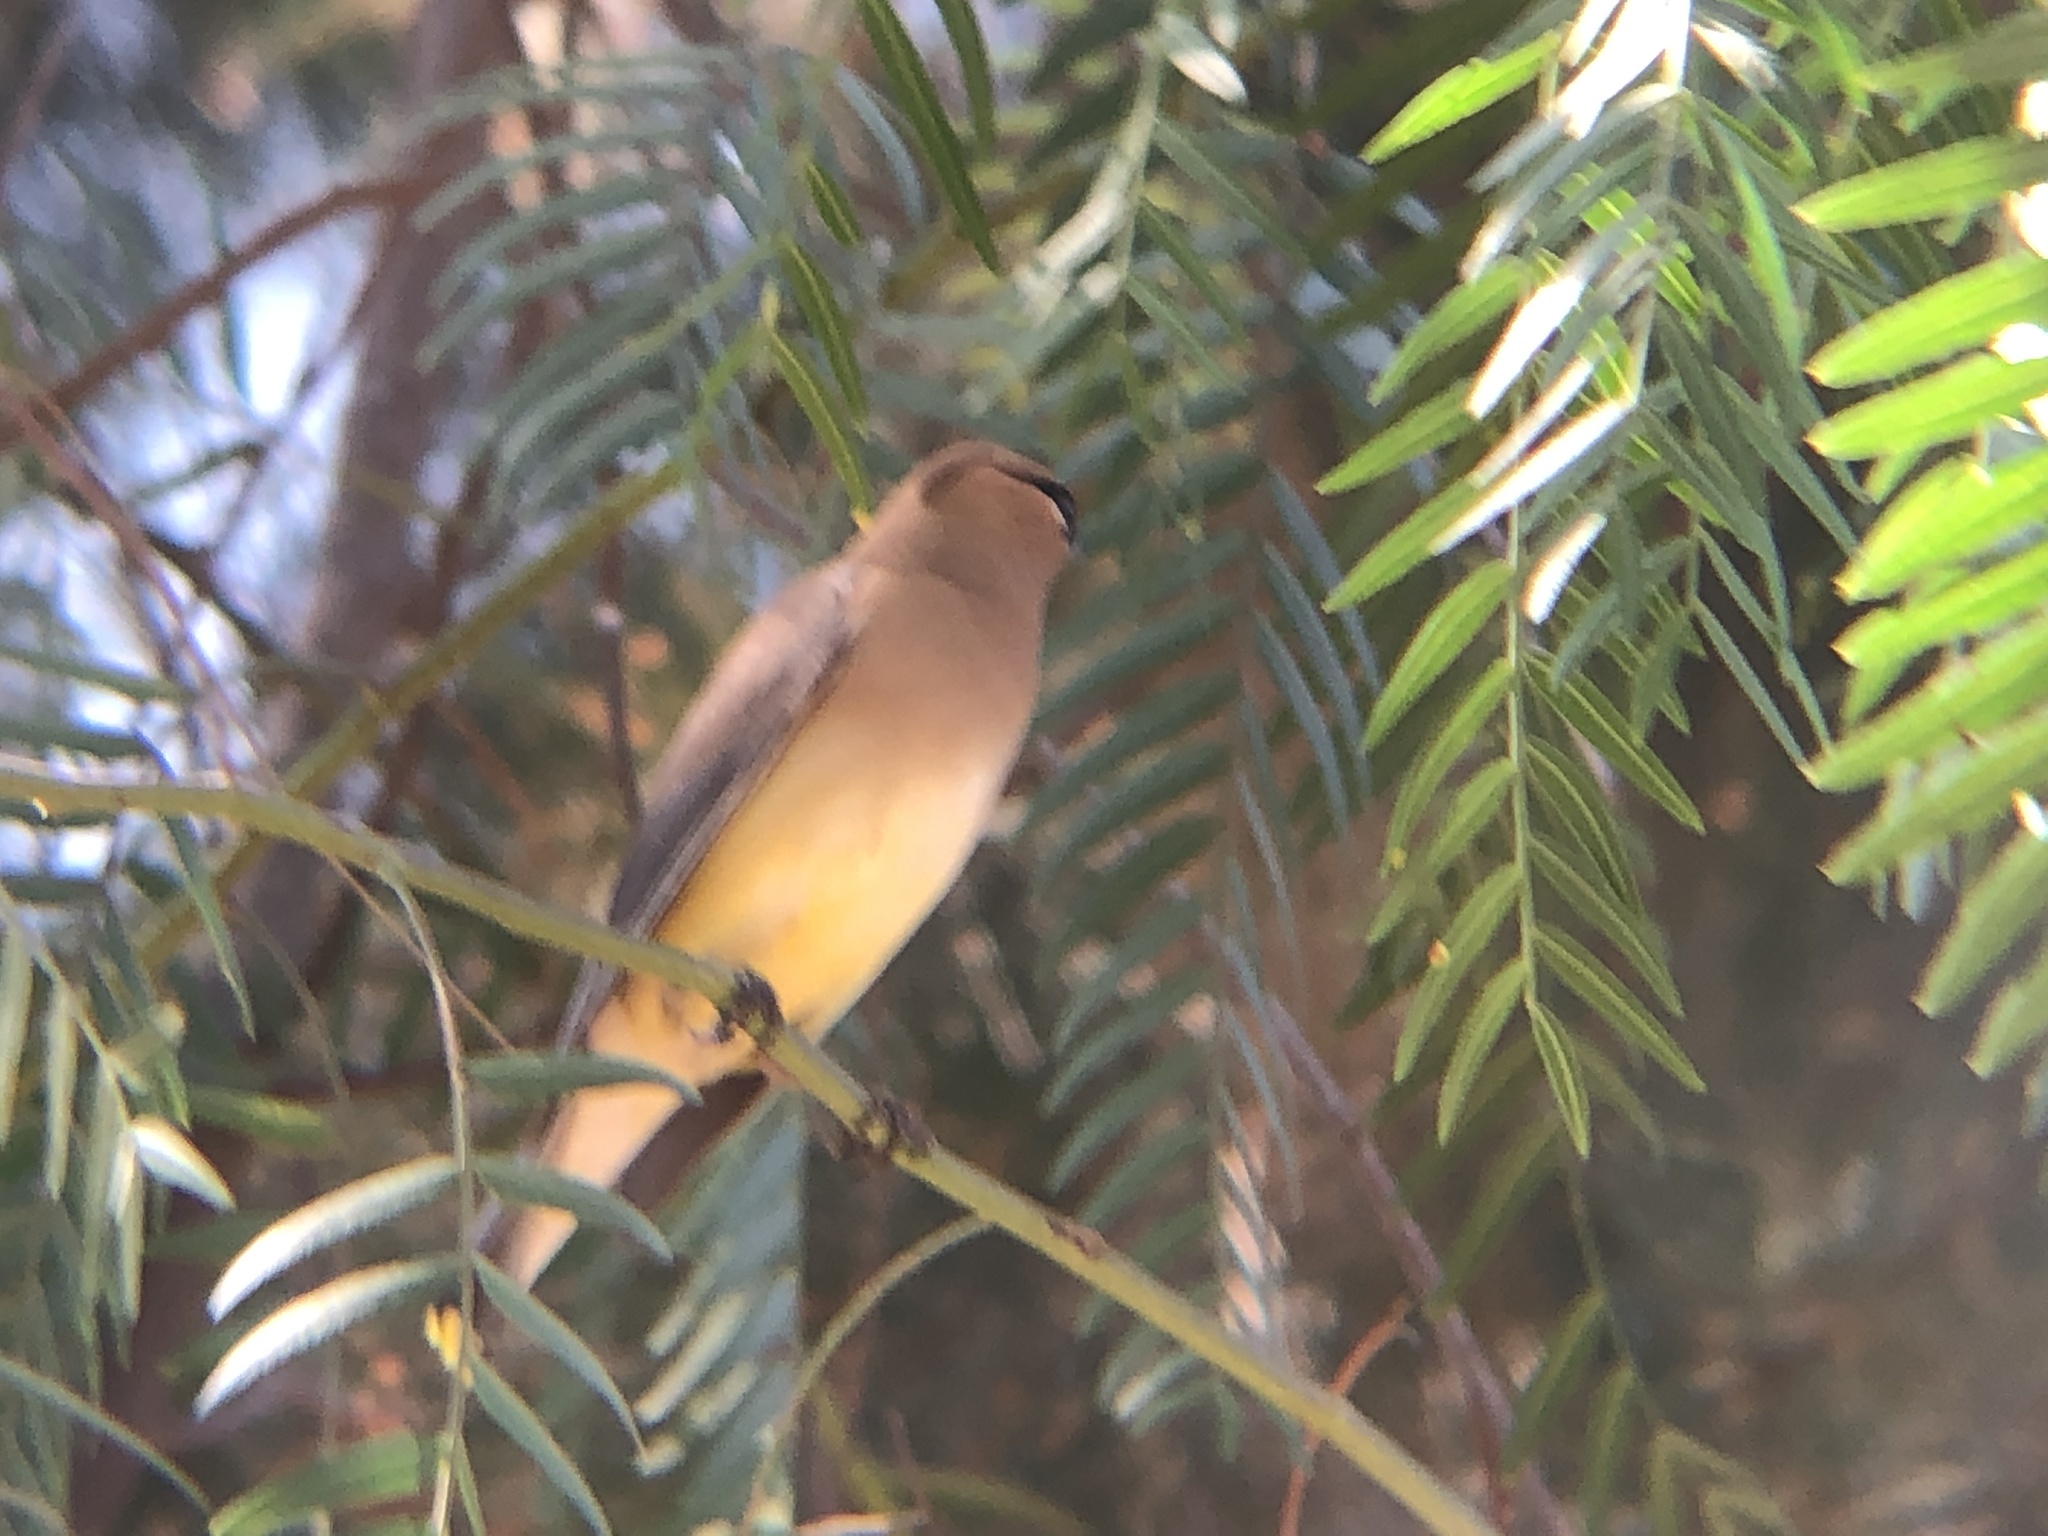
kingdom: Animalia
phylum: Chordata
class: Aves
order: Passeriformes
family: Bombycillidae
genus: Bombycilla
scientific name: Bombycilla cedrorum
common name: Cedar waxwing
